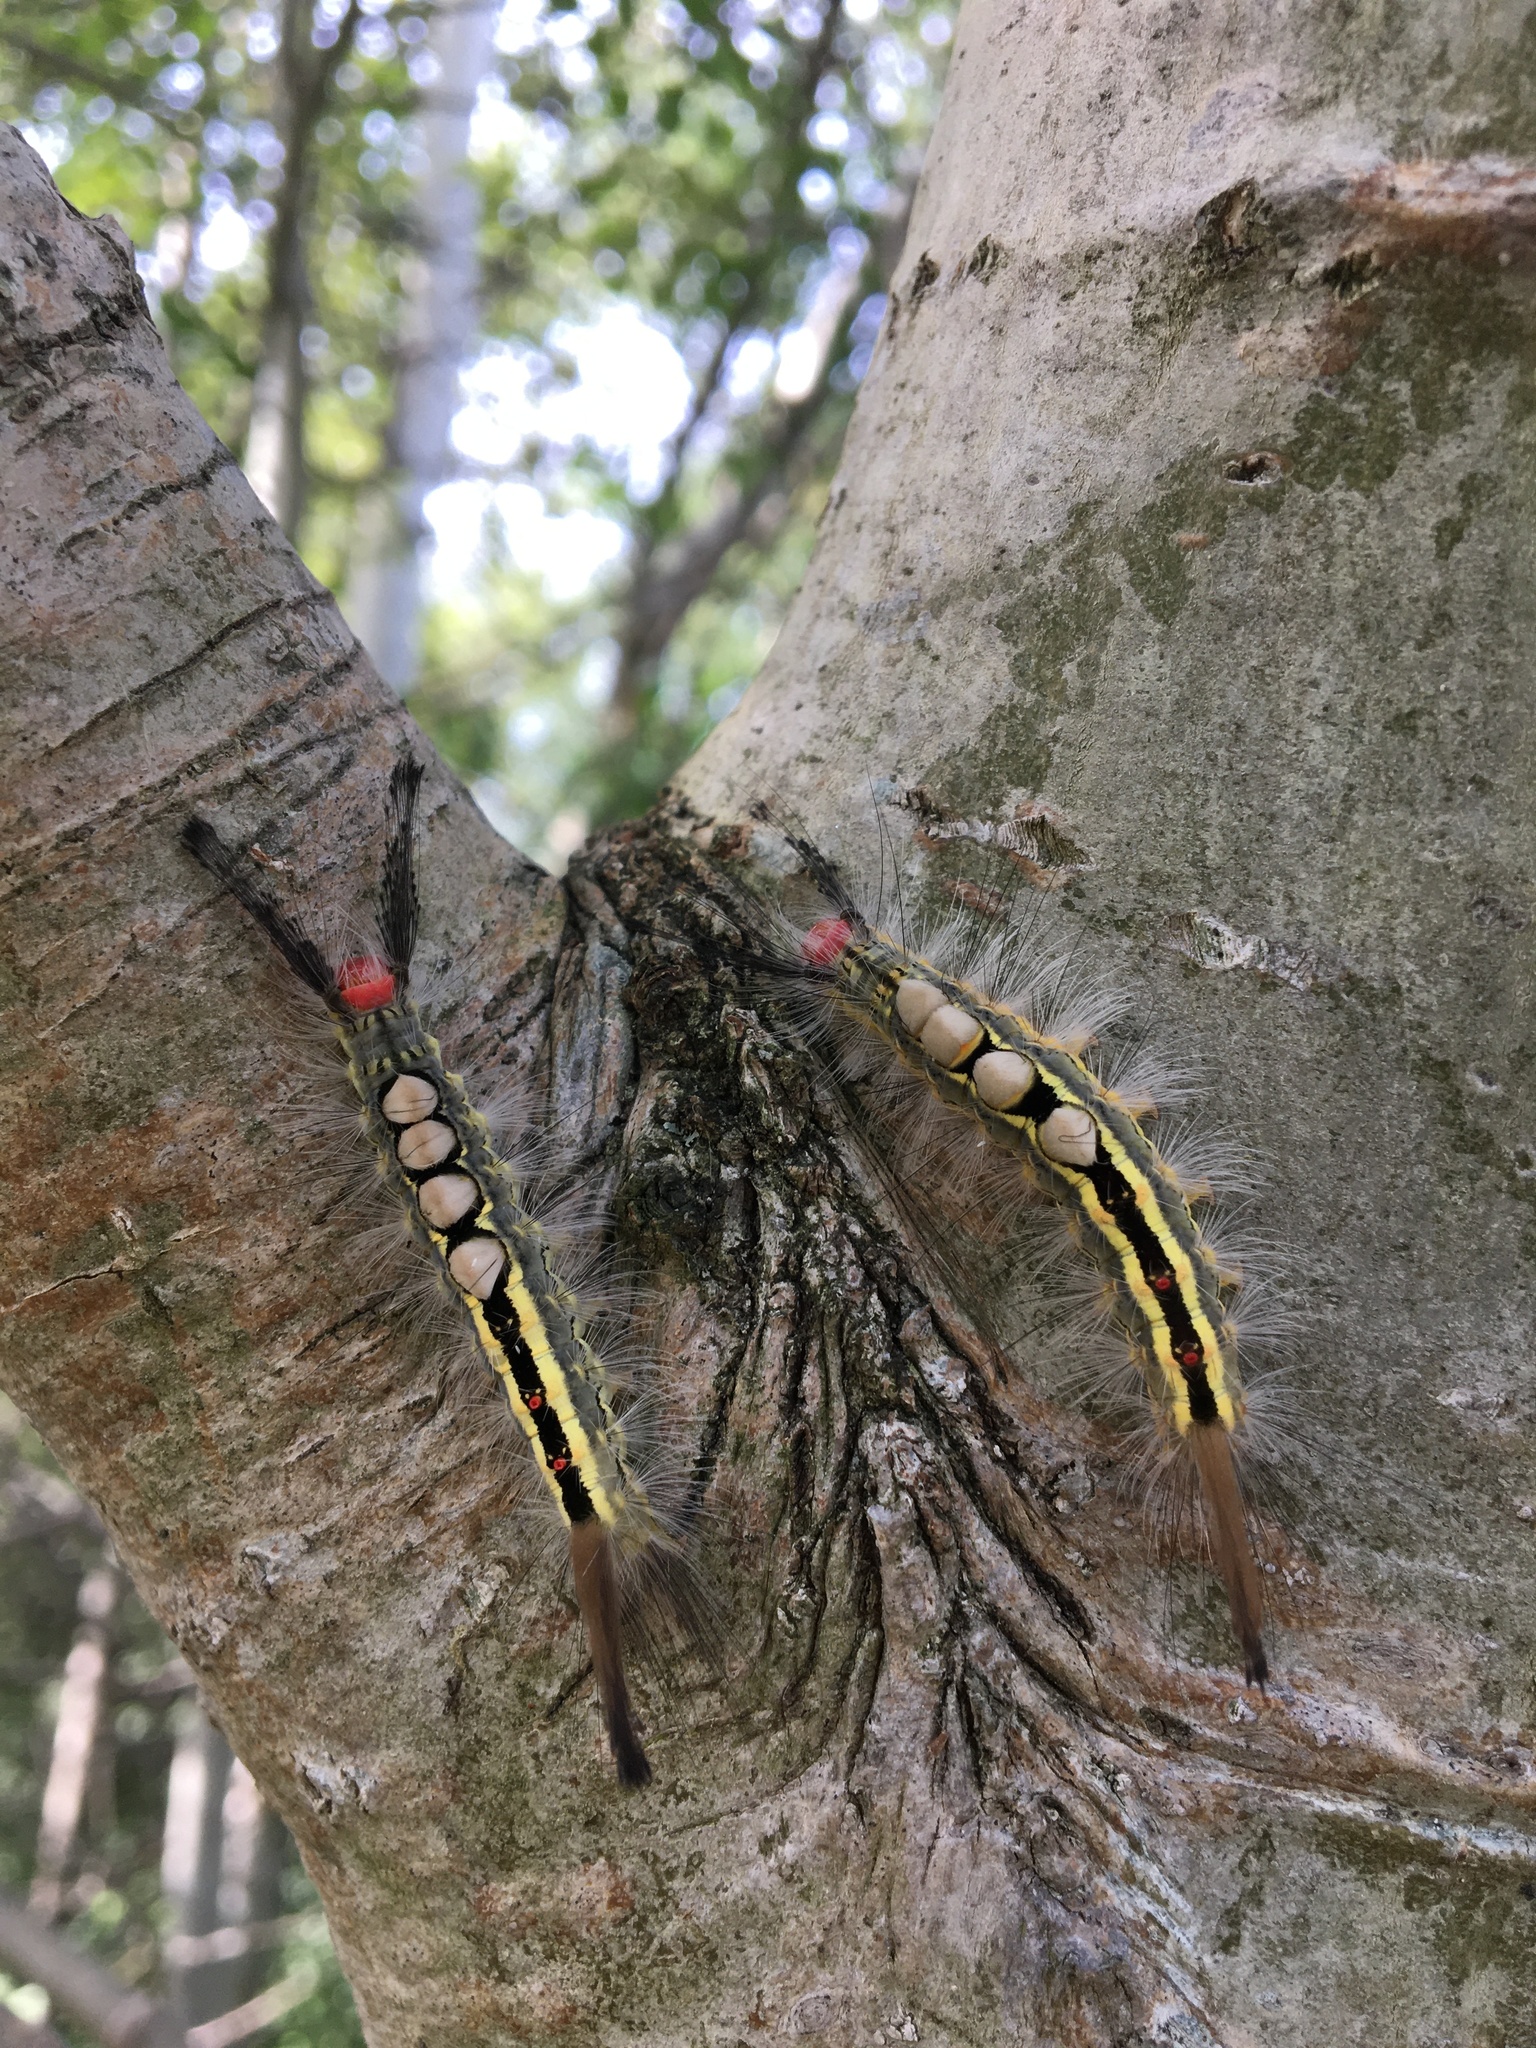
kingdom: Animalia
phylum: Arthropoda
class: Insecta
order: Lepidoptera
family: Erebidae
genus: Orgyia
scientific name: Orgyia leucostigma
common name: White-marked tussock moth
